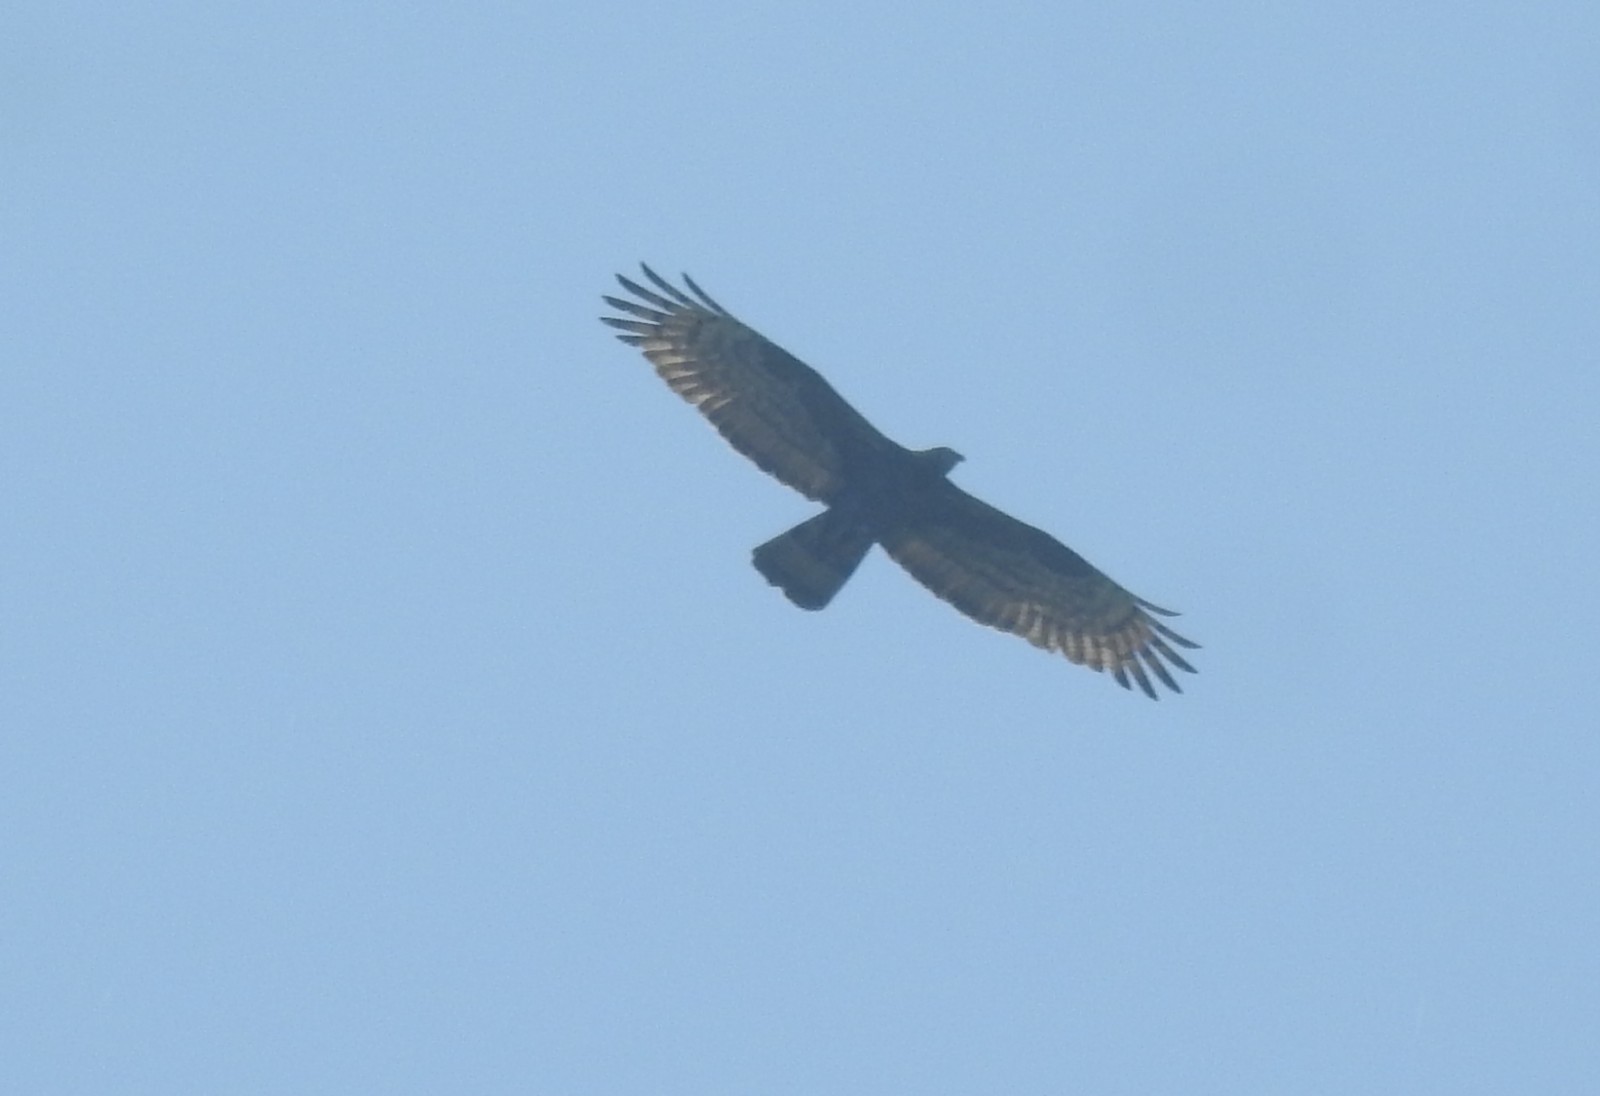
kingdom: Animalia
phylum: Chordata
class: Aves
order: Accipitriformes
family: Accipitridae
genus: Pernis
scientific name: Pernis ptilorhynchus
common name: Crested honey buzzard
